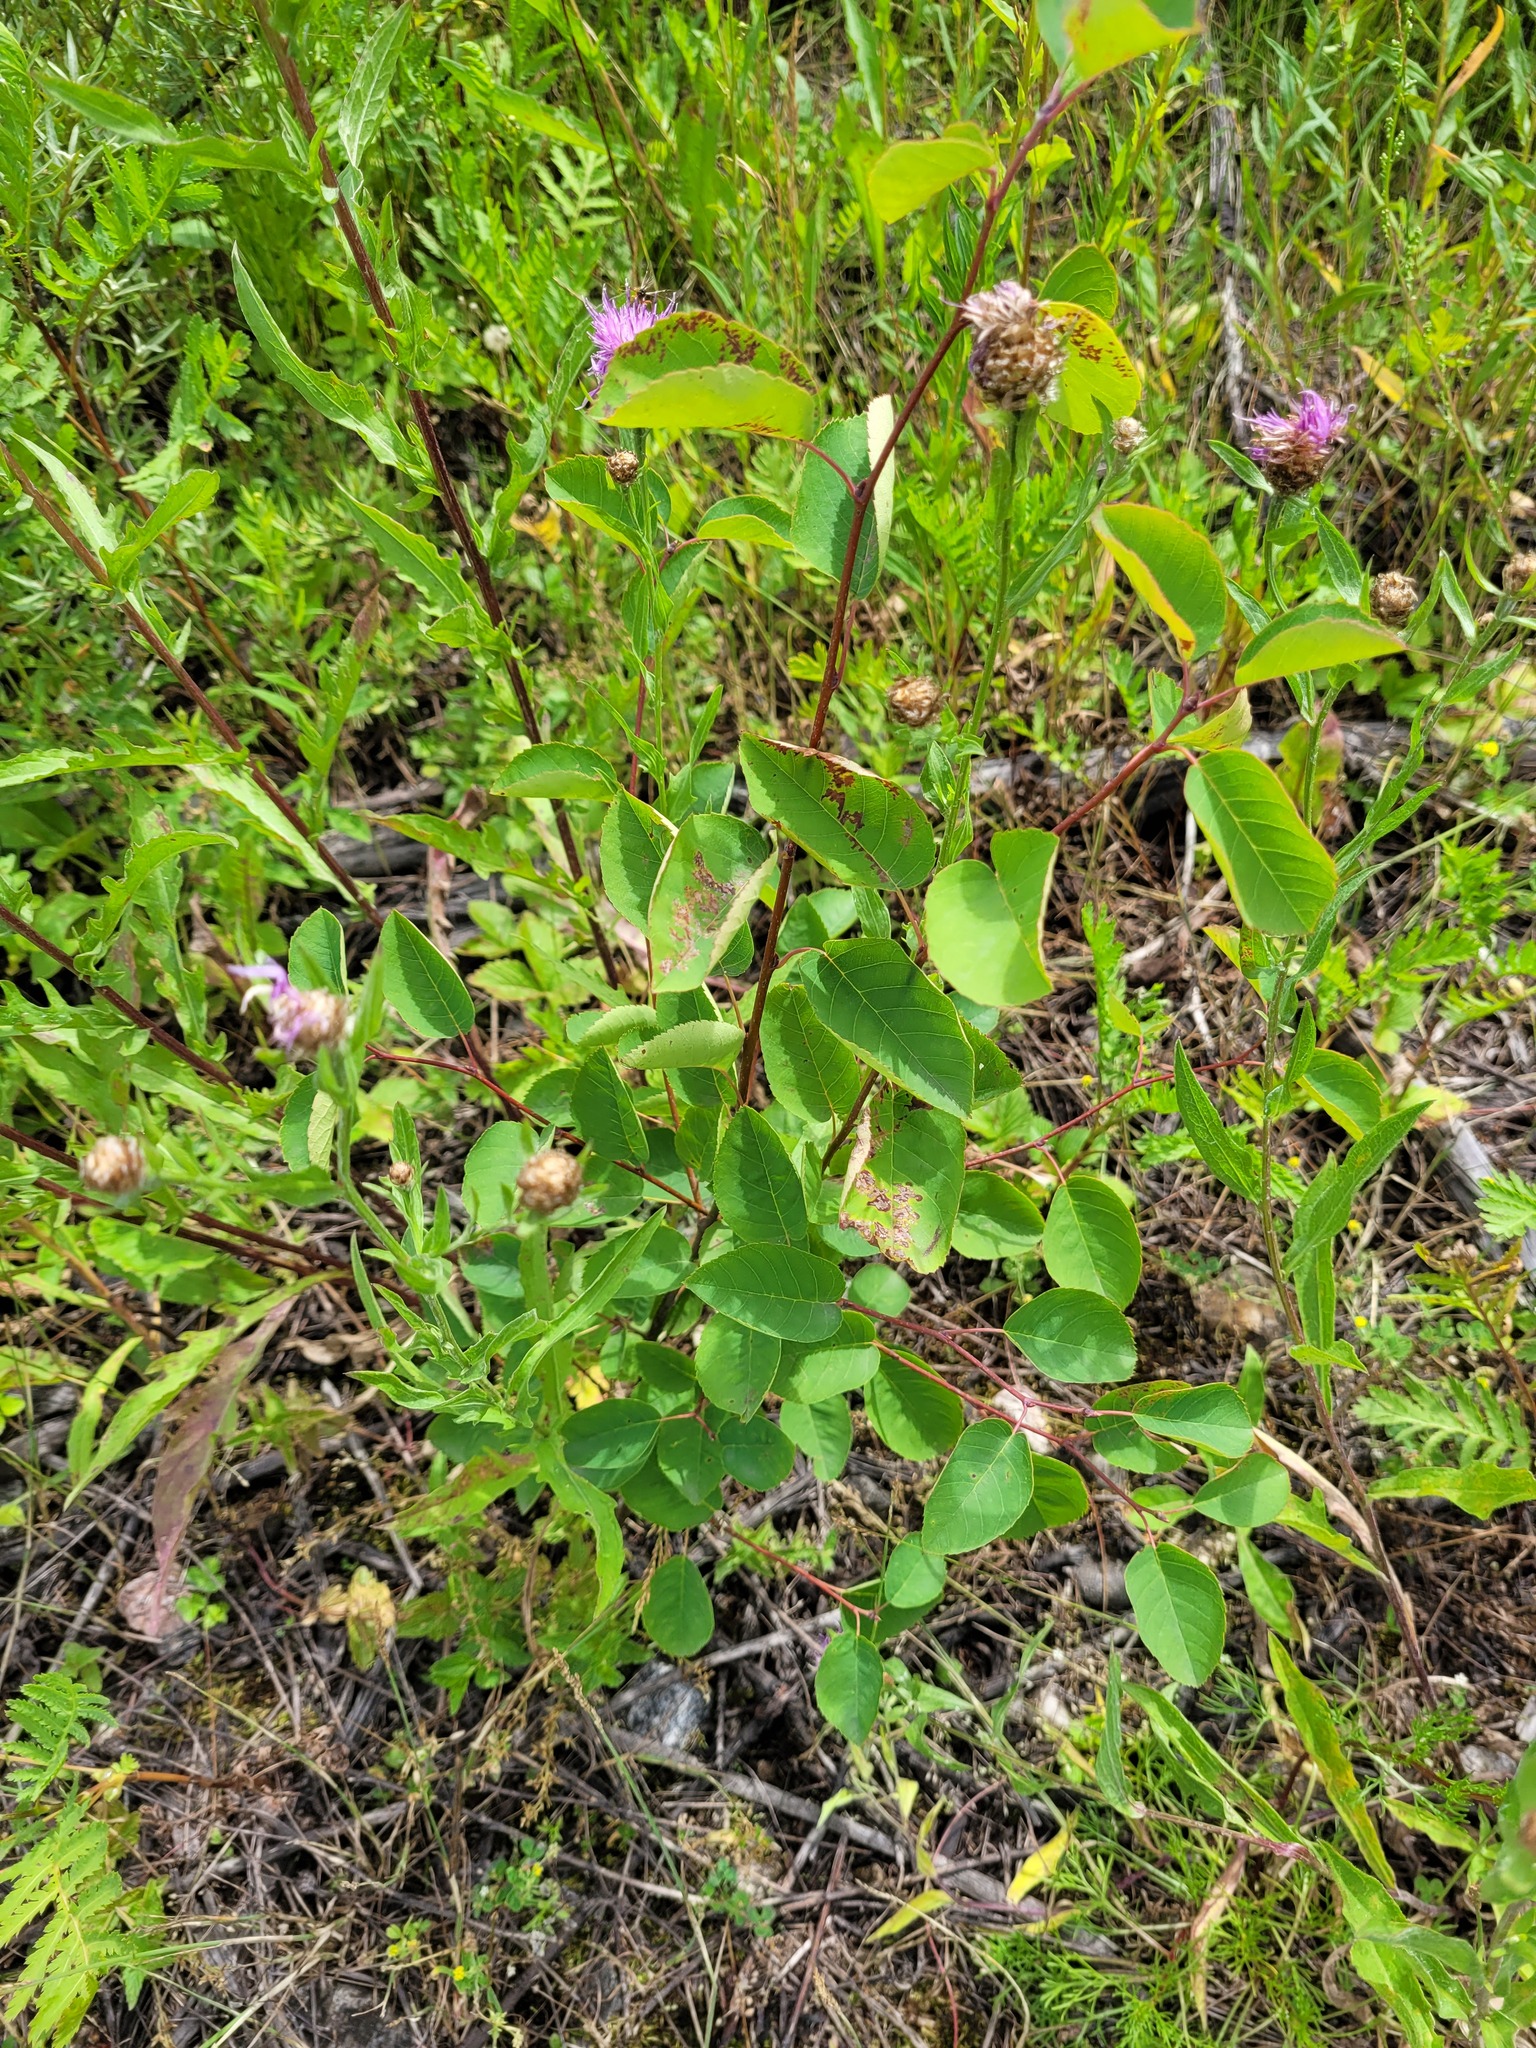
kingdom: Plantae
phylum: Tracheophyta
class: Magnoliopsida
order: Rosales
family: Rosaceae
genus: Amelanchier
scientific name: Amelanchier
